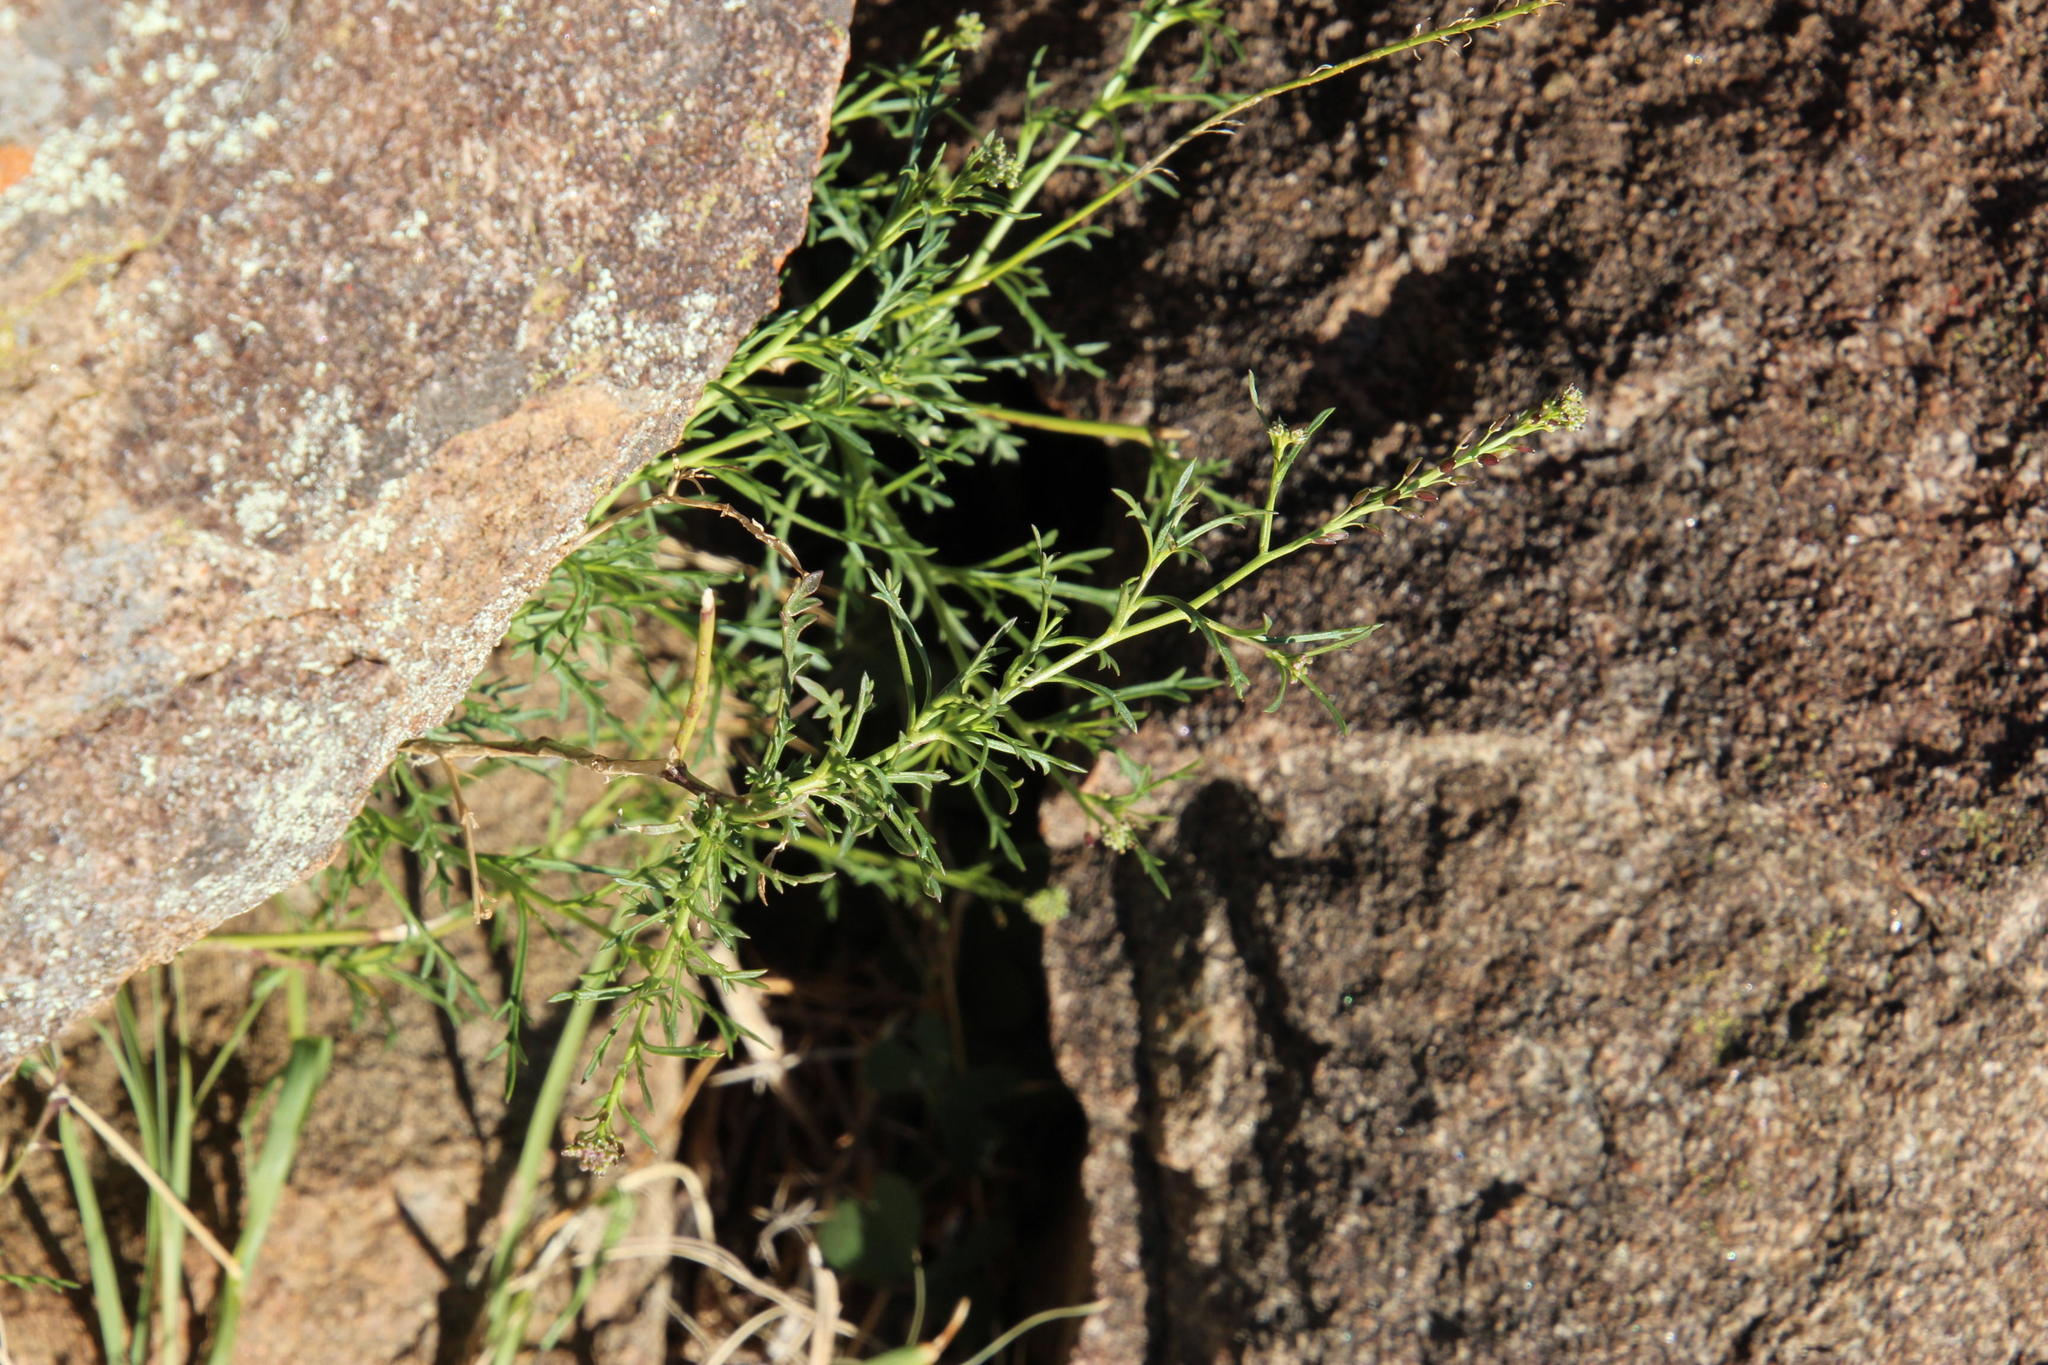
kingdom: Plantae
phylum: Tracheophyta
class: Magnoliopsida
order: Brassicales
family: Brassicaceae
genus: Lepidium
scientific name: Lepidium trifurcum
